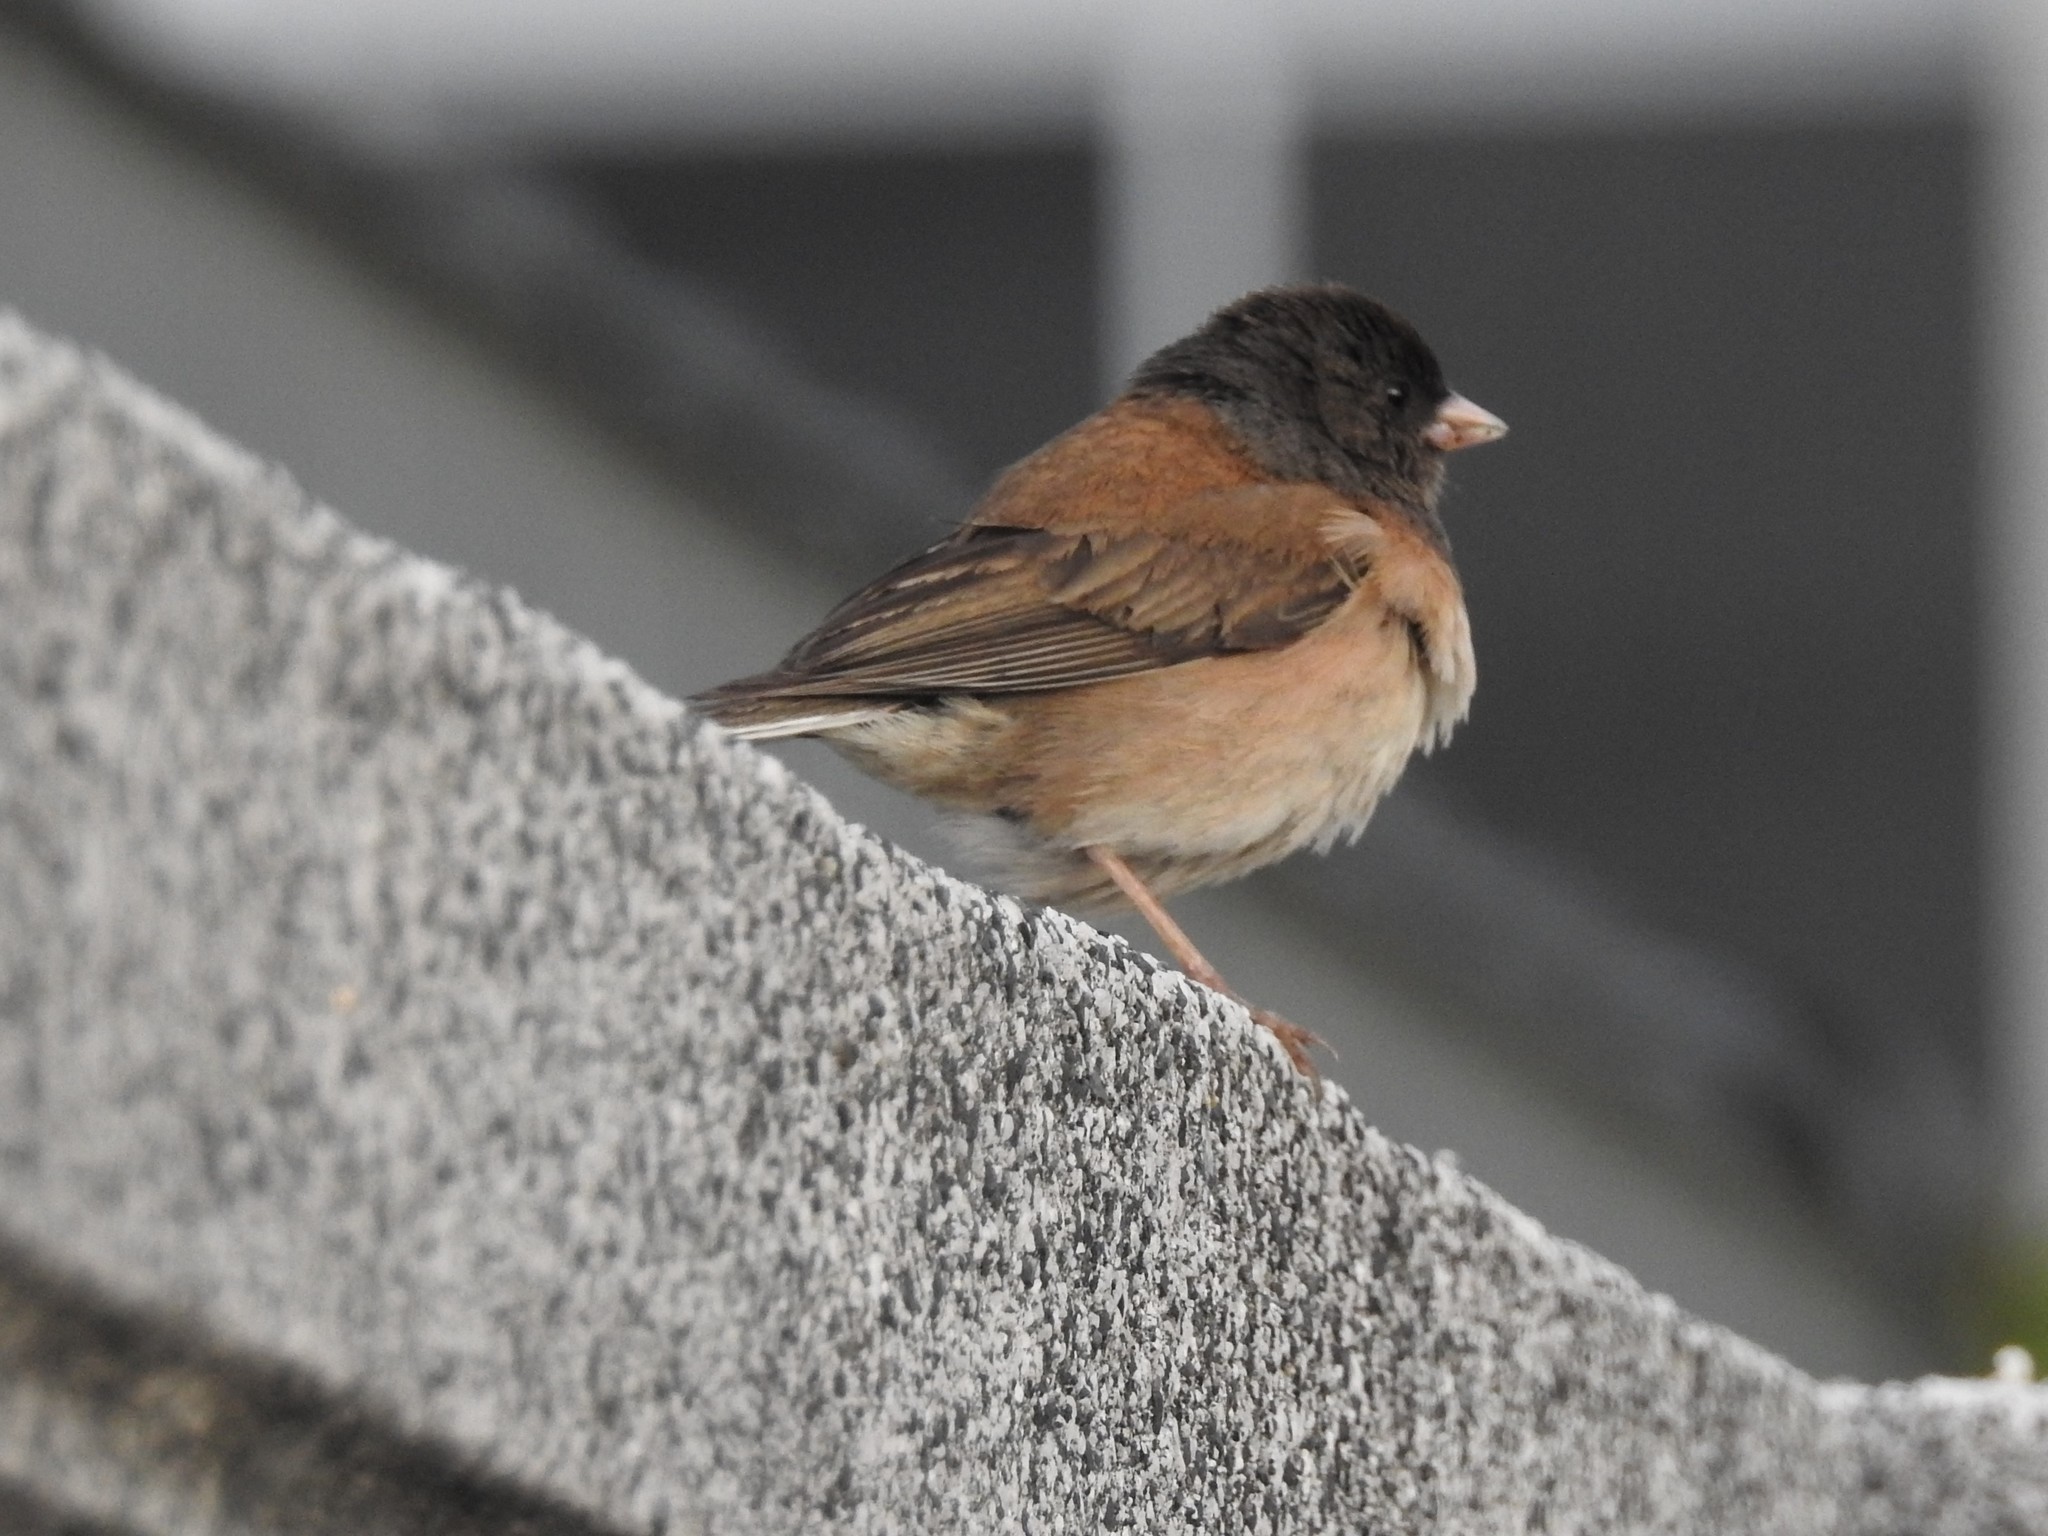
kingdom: Animalia
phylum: Chordata
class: Aves
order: Passeriformes
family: Passerellidae
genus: Junco
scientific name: Junco hyemalis
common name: Dark-eyed junco
